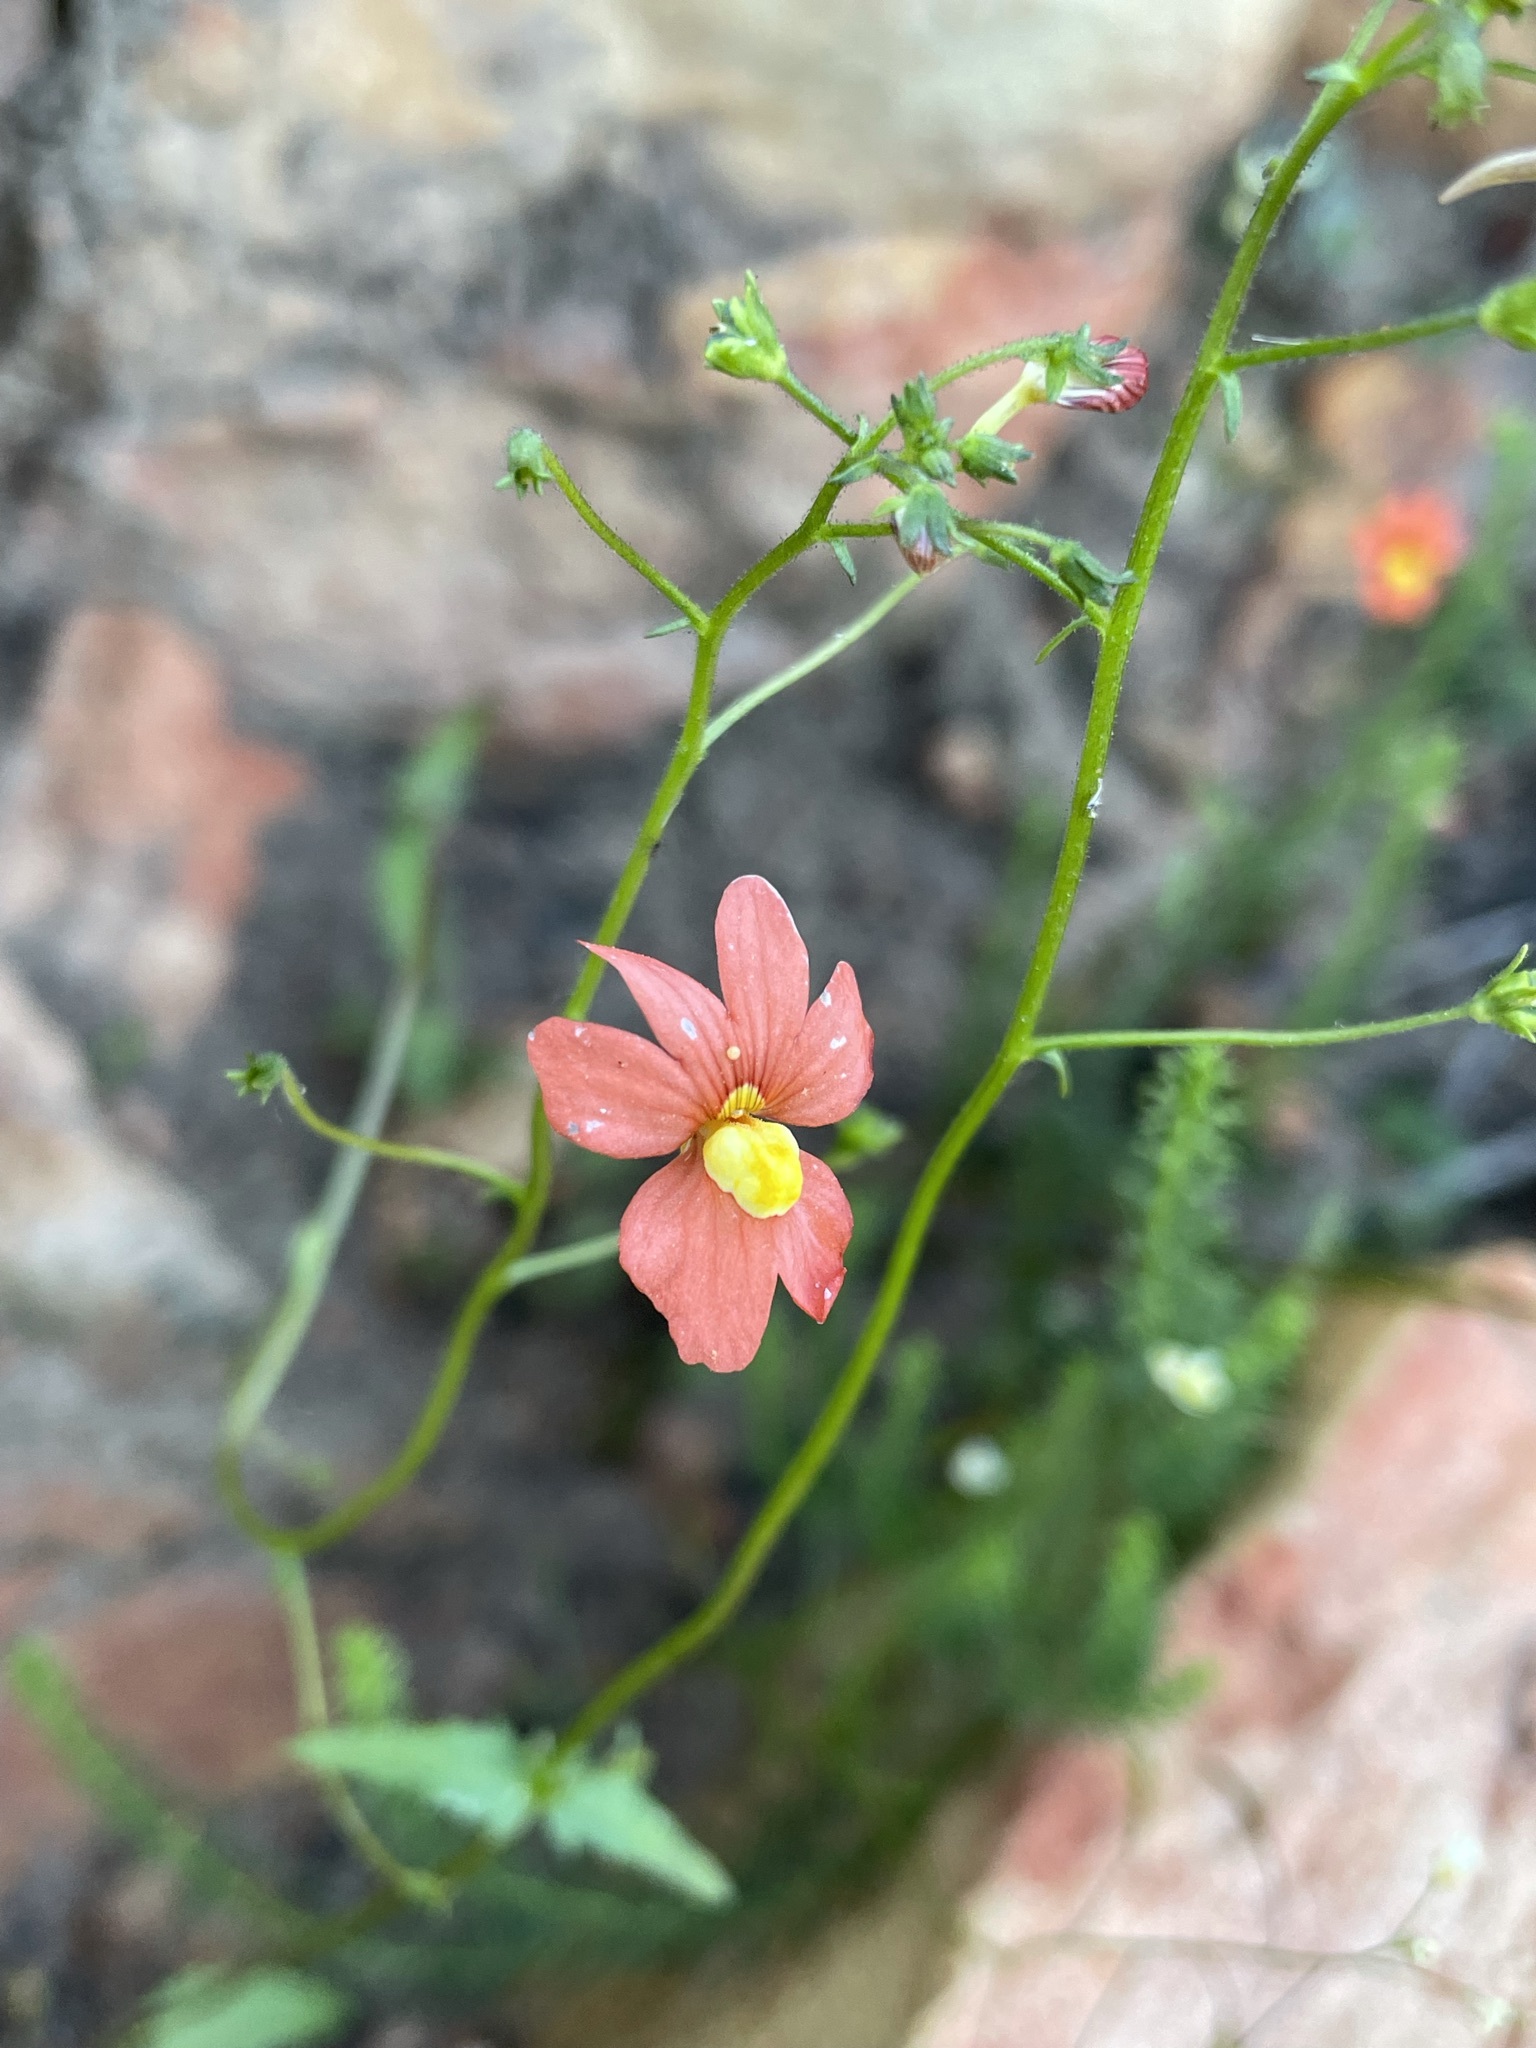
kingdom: Plantae
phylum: Tracheophyta
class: Magnoliopsida
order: Lamiales
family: Scrophulariaceae
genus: Nemesia
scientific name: Nemesia pageae
